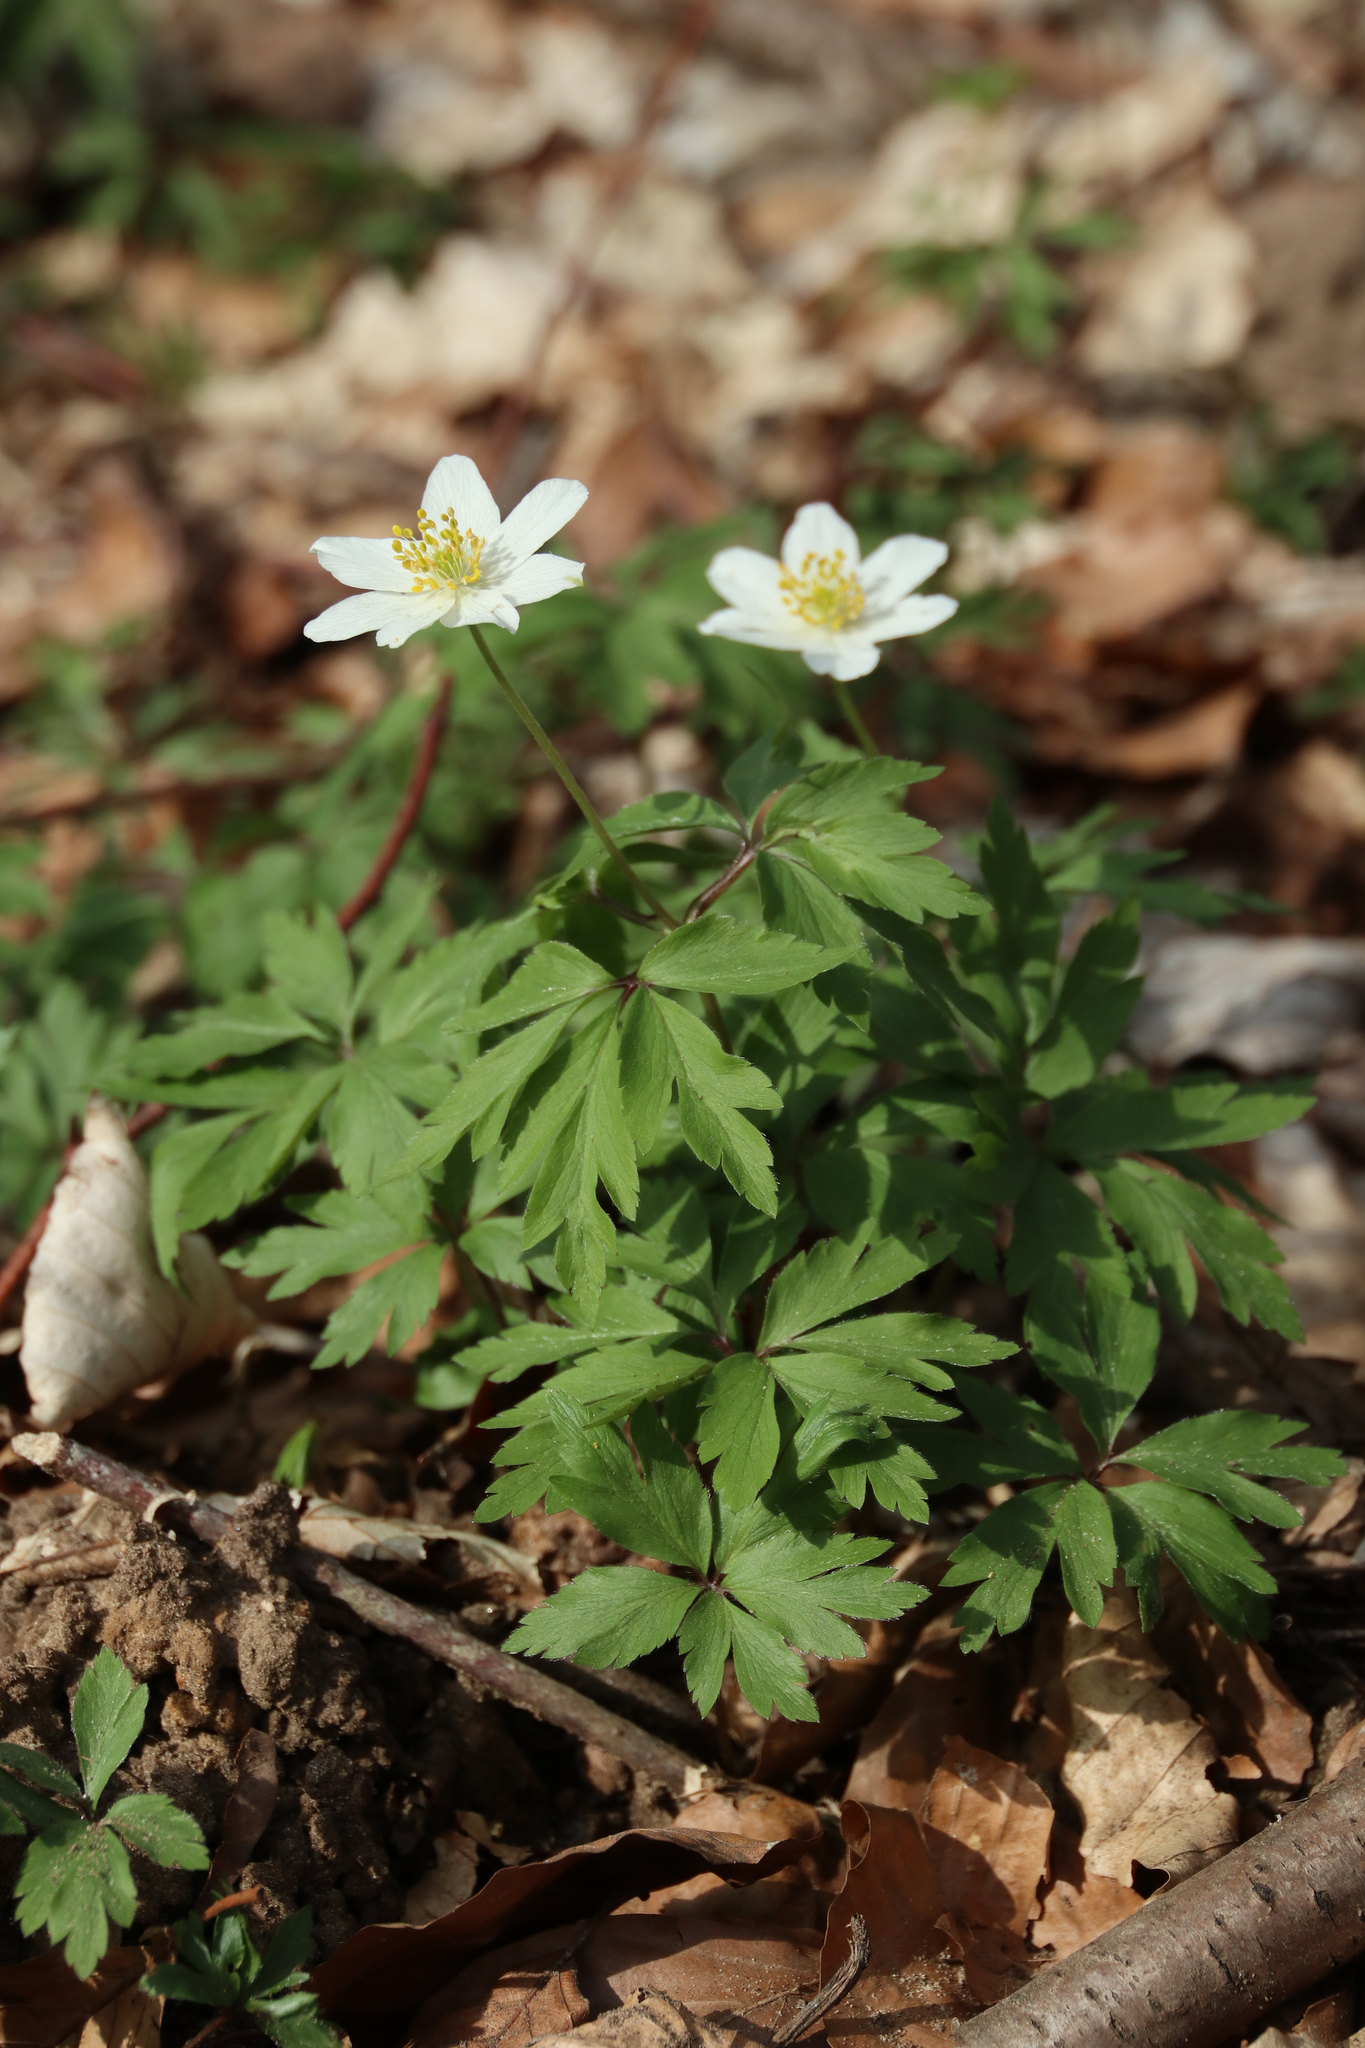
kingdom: Plantae
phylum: Tracheophyta
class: Magnoliopsida
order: Ranunculales
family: Ranunculaceae
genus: Anemone
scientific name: Anemone nemorosa
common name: Wood anemone
